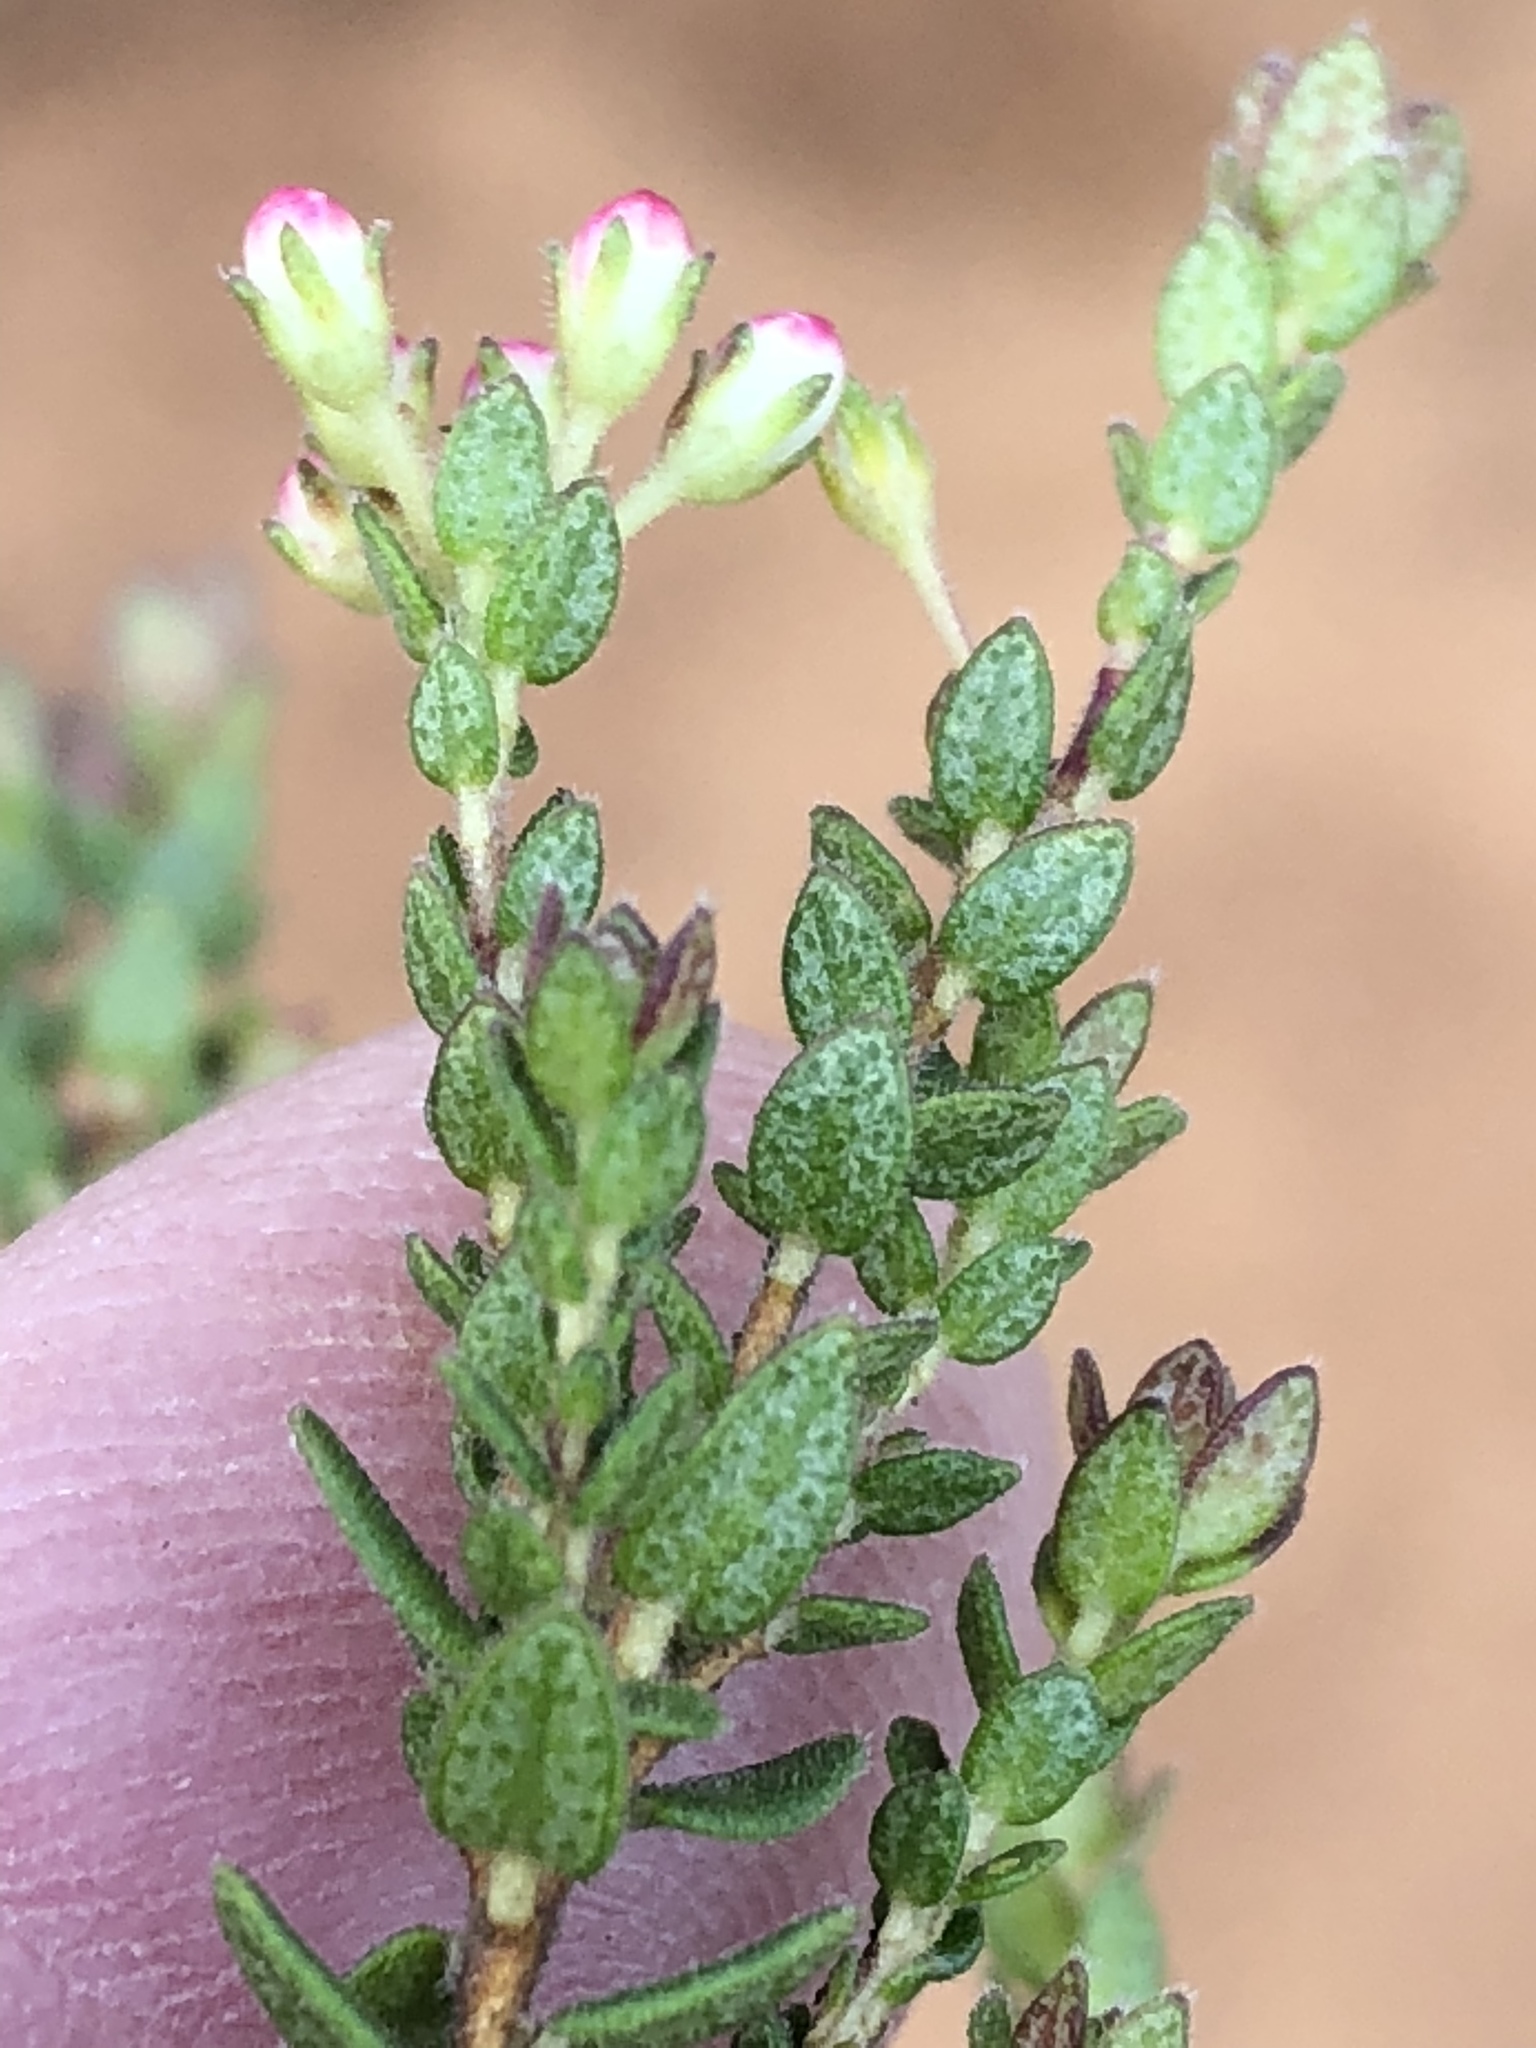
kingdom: Plantae
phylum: Tracheophyta
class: Magnoliopsida
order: Sapindales
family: Rutaceae
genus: Agathosma
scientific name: Agathosma planifolia
